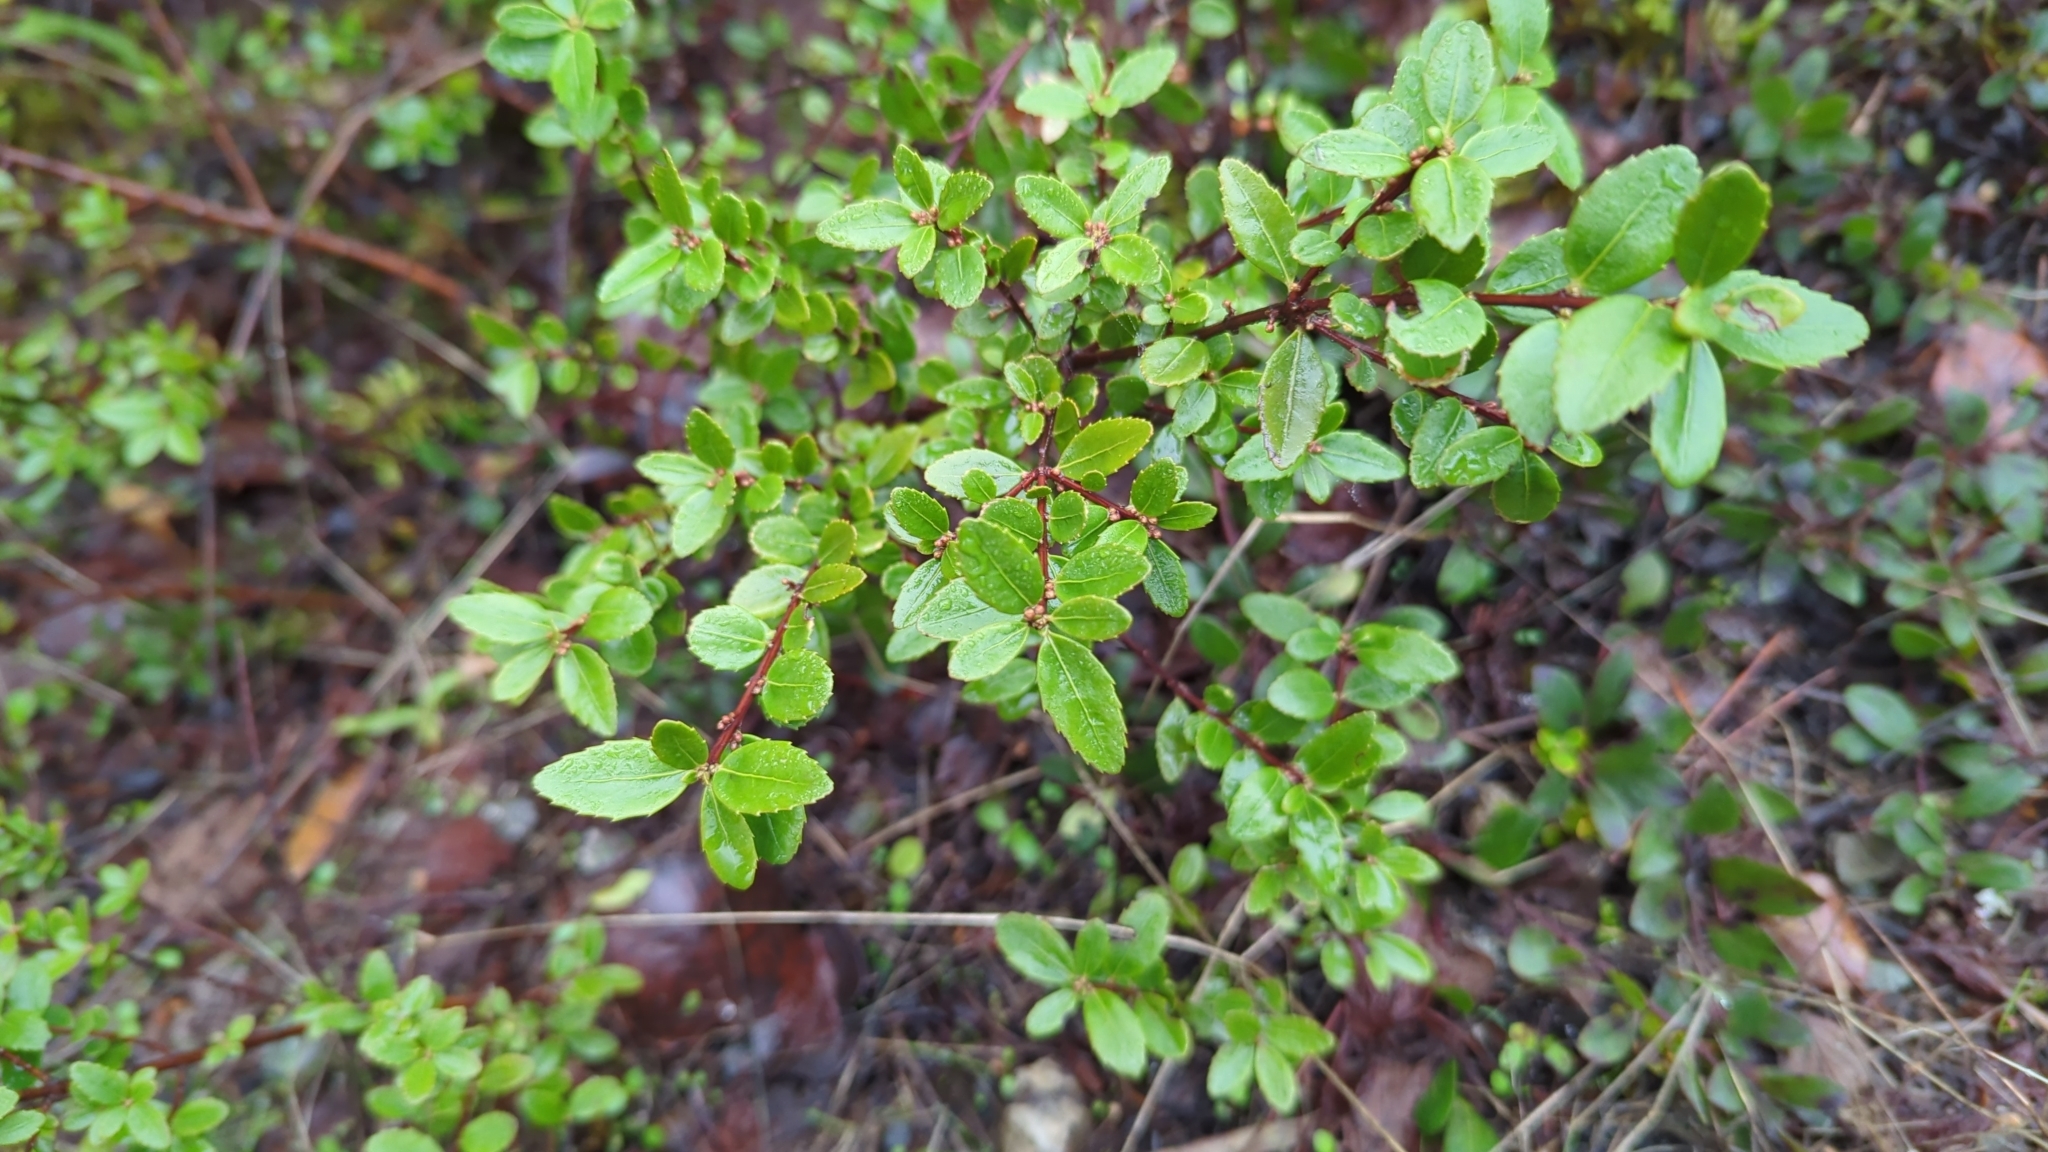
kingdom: Plantae
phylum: Tracheophyta
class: Magnoliopsida
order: Celastrales
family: Celastraceae
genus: Paxistima
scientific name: Paxistima myrsinites
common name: Mountain-lover
